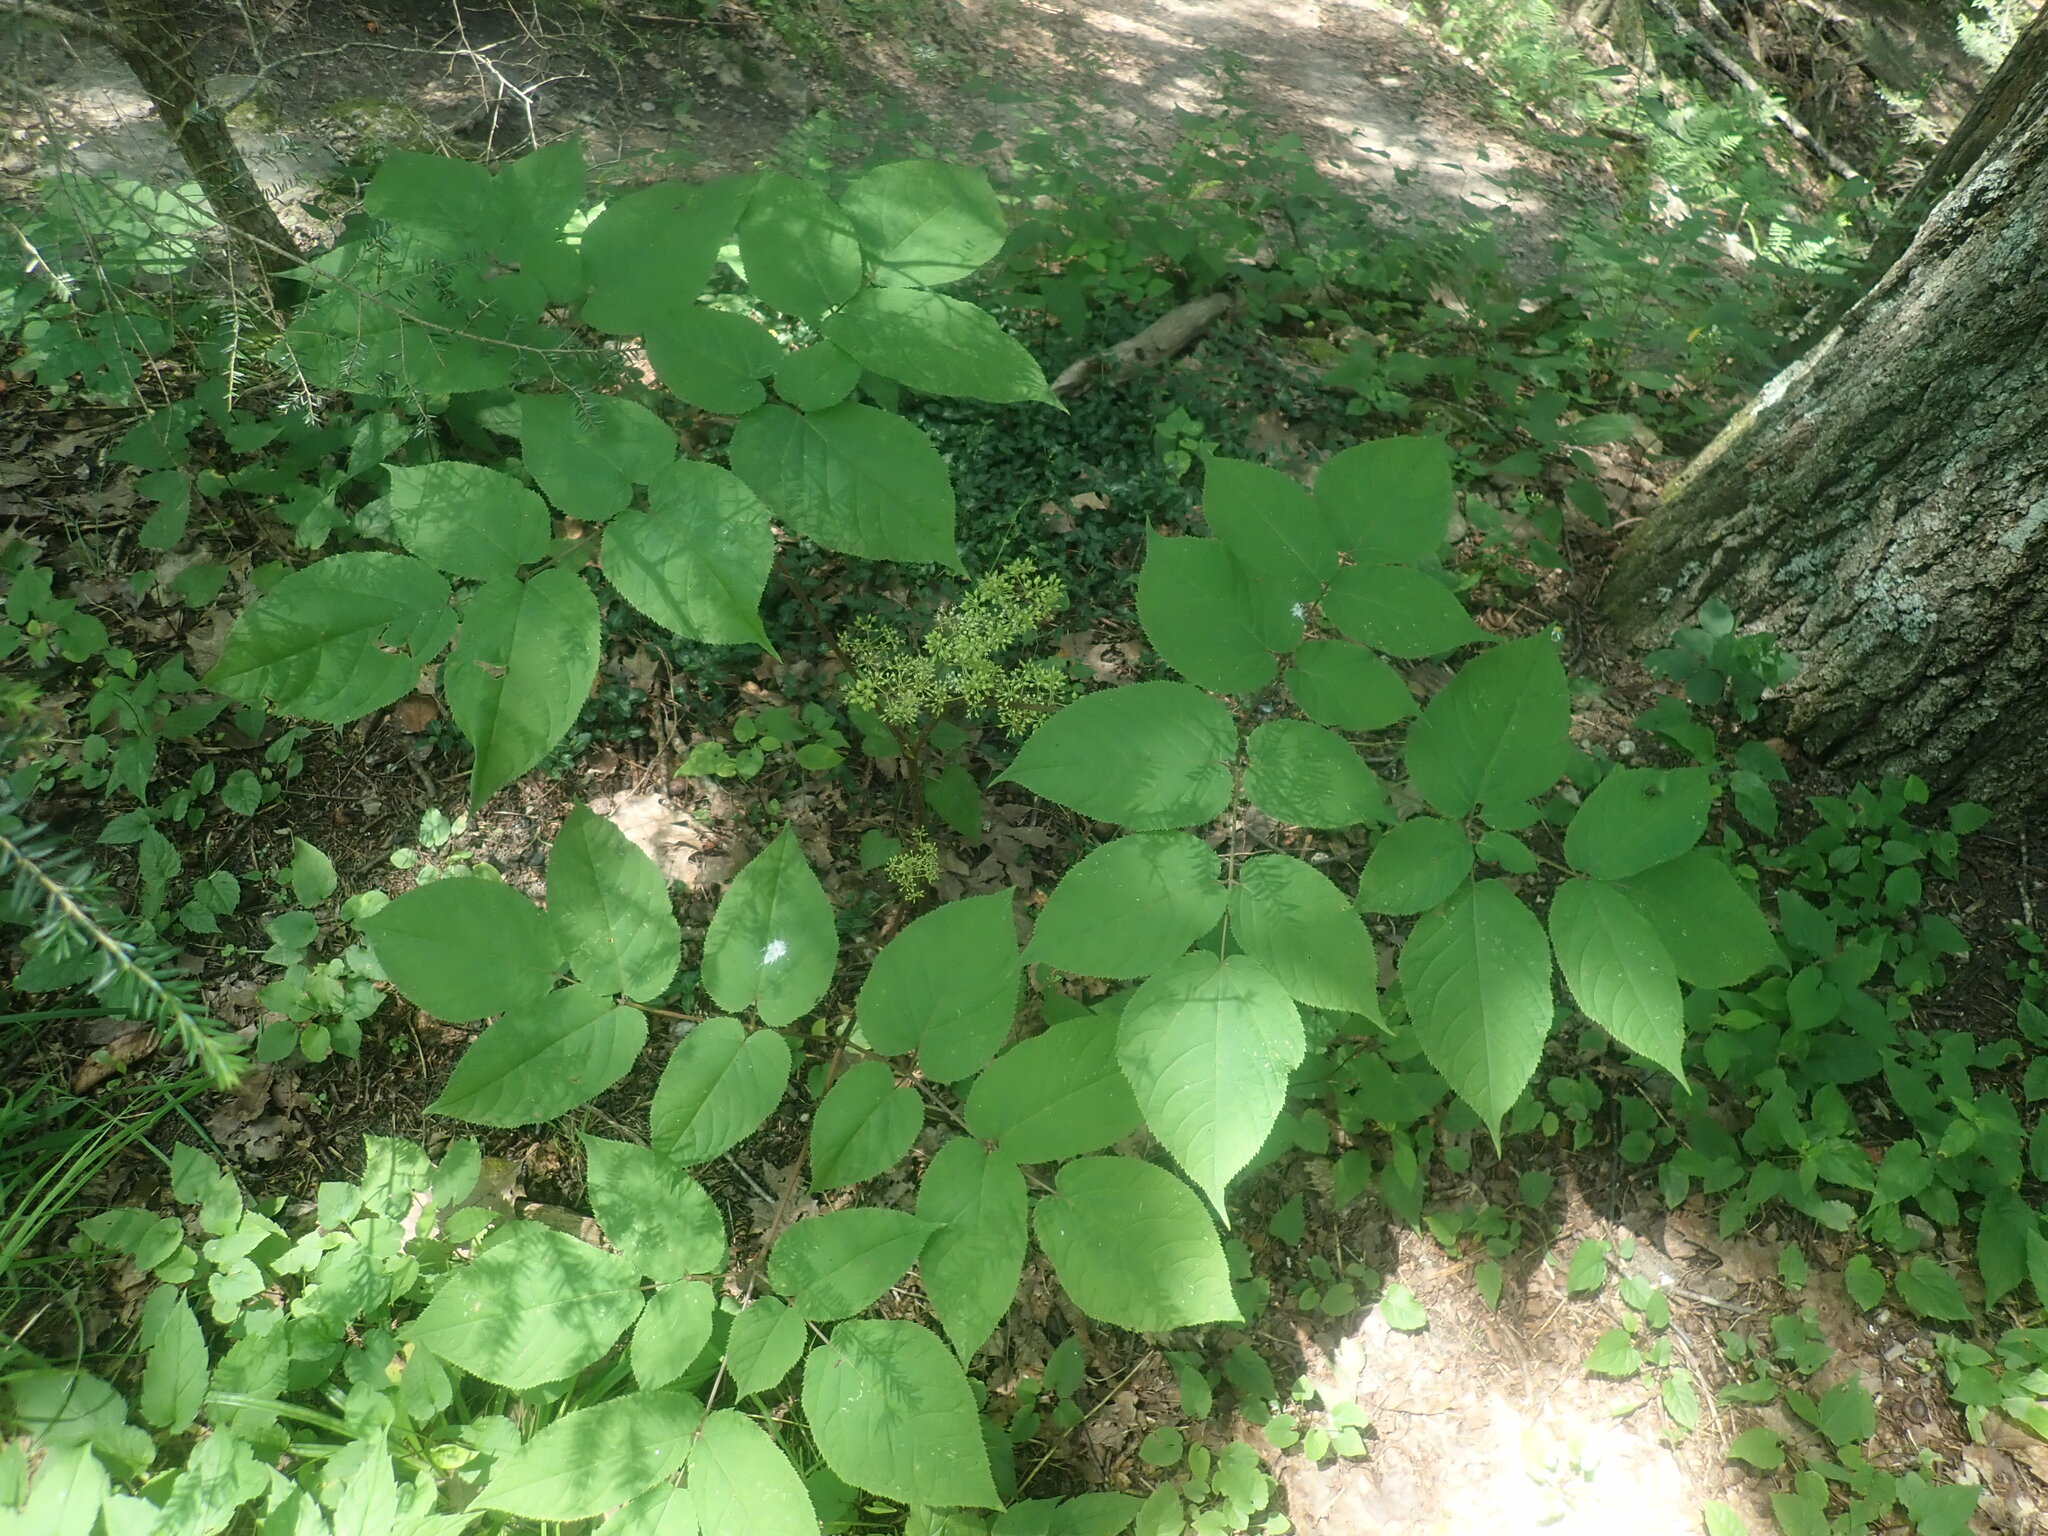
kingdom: Plantae
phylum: Tracheophyta
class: Magnoliopsida
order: Apiales
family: Araliaceae
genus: Aralia
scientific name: Aralia racemosa
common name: American-spikenard
